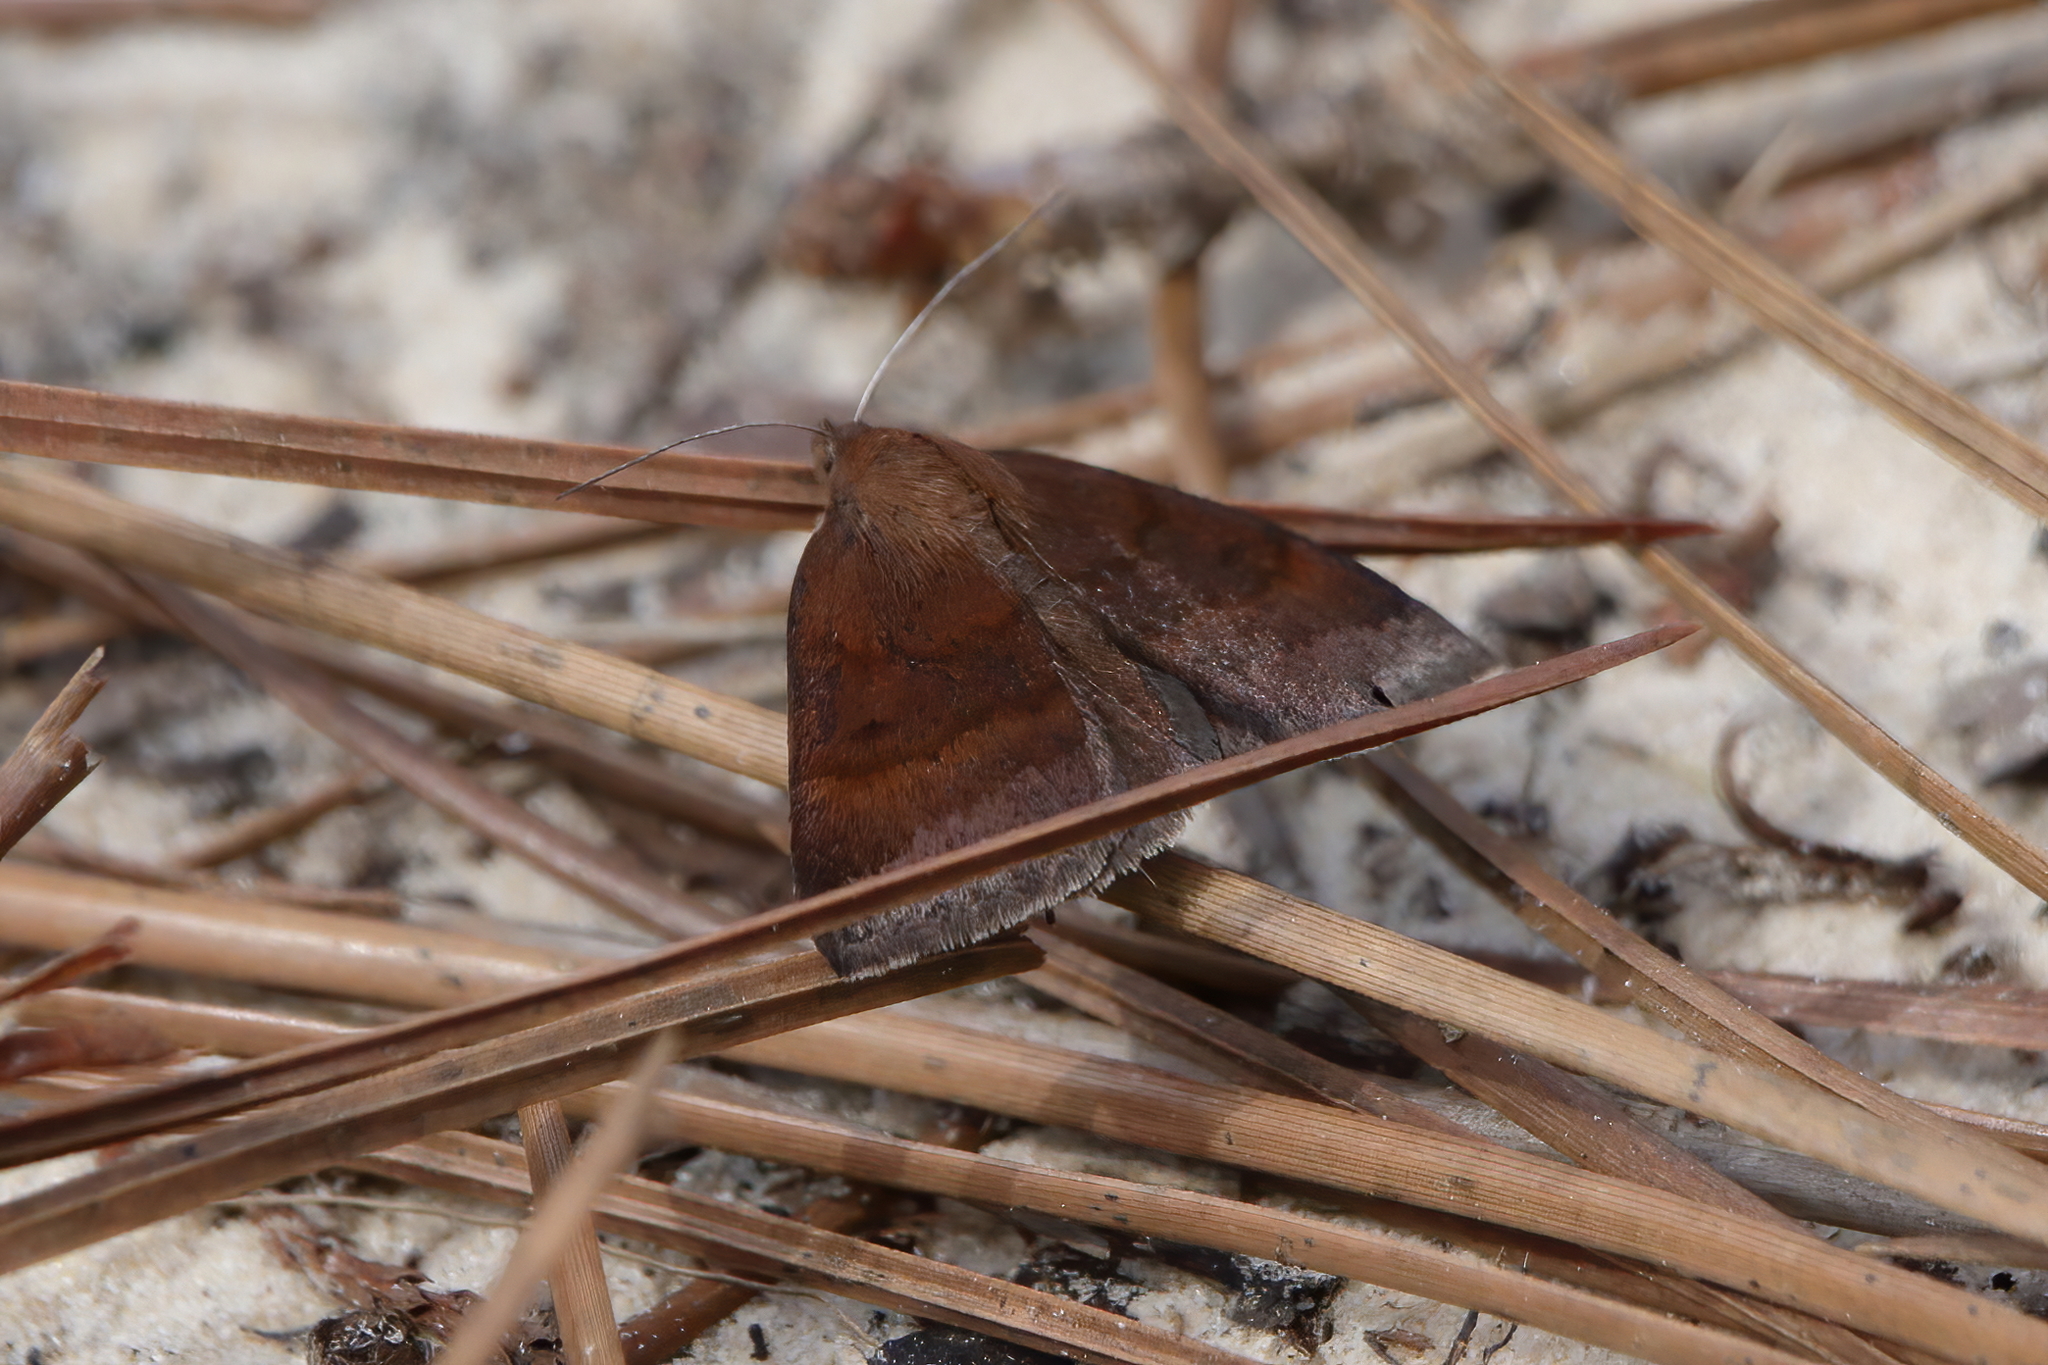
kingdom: Animalia
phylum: Arthropoda
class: Insecta
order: Lepidoptera
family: Erebidae
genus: Argyrostrotis
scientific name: Argyrostrotis deleta
